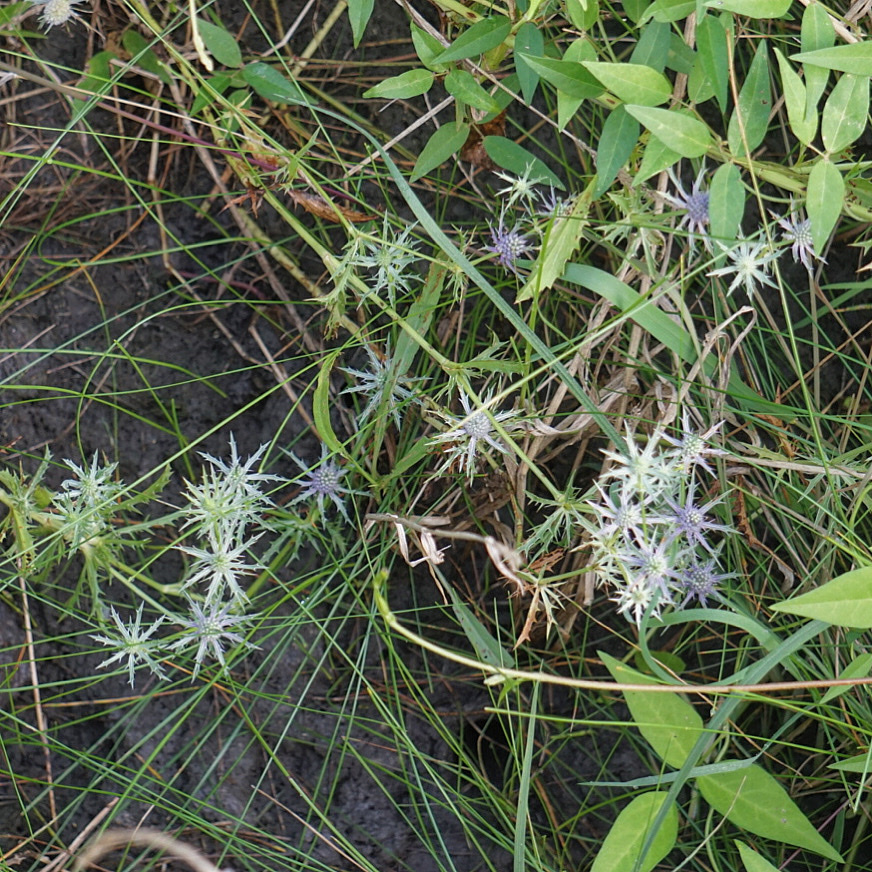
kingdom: Plantae
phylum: Tracheophyta
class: Magnoliopsida
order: Apiales
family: Apiaceae
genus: Eryngium
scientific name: Eryngium hookeri
